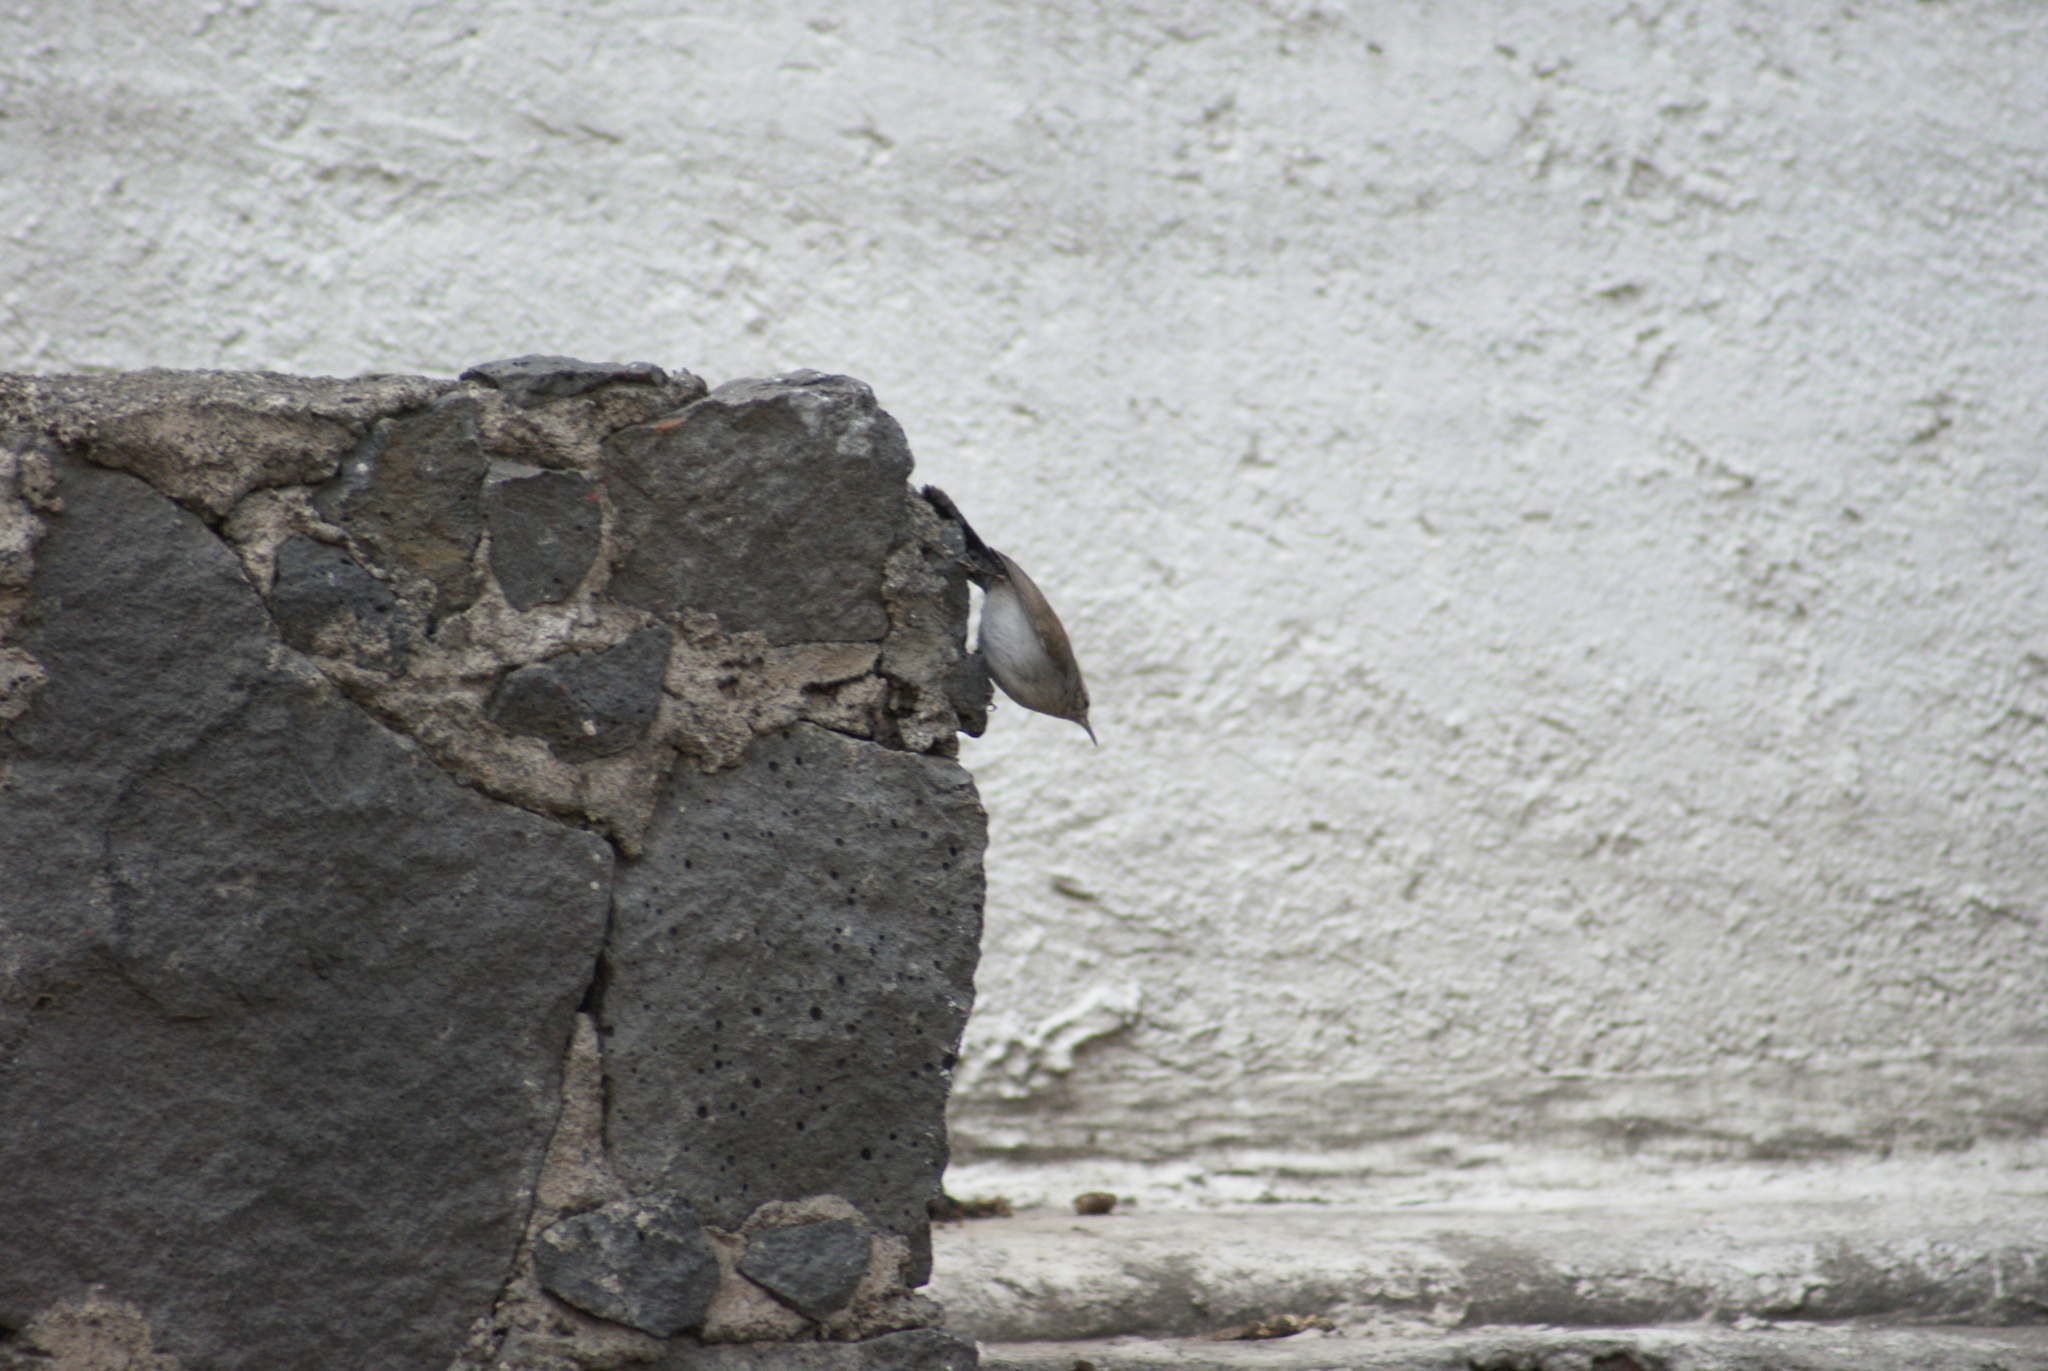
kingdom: Animalia
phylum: Chordata
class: Aves
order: Passeriformes
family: Troglodytidae
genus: Thryomanes
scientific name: Thryomanes bewickii
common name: Bewick's wren
